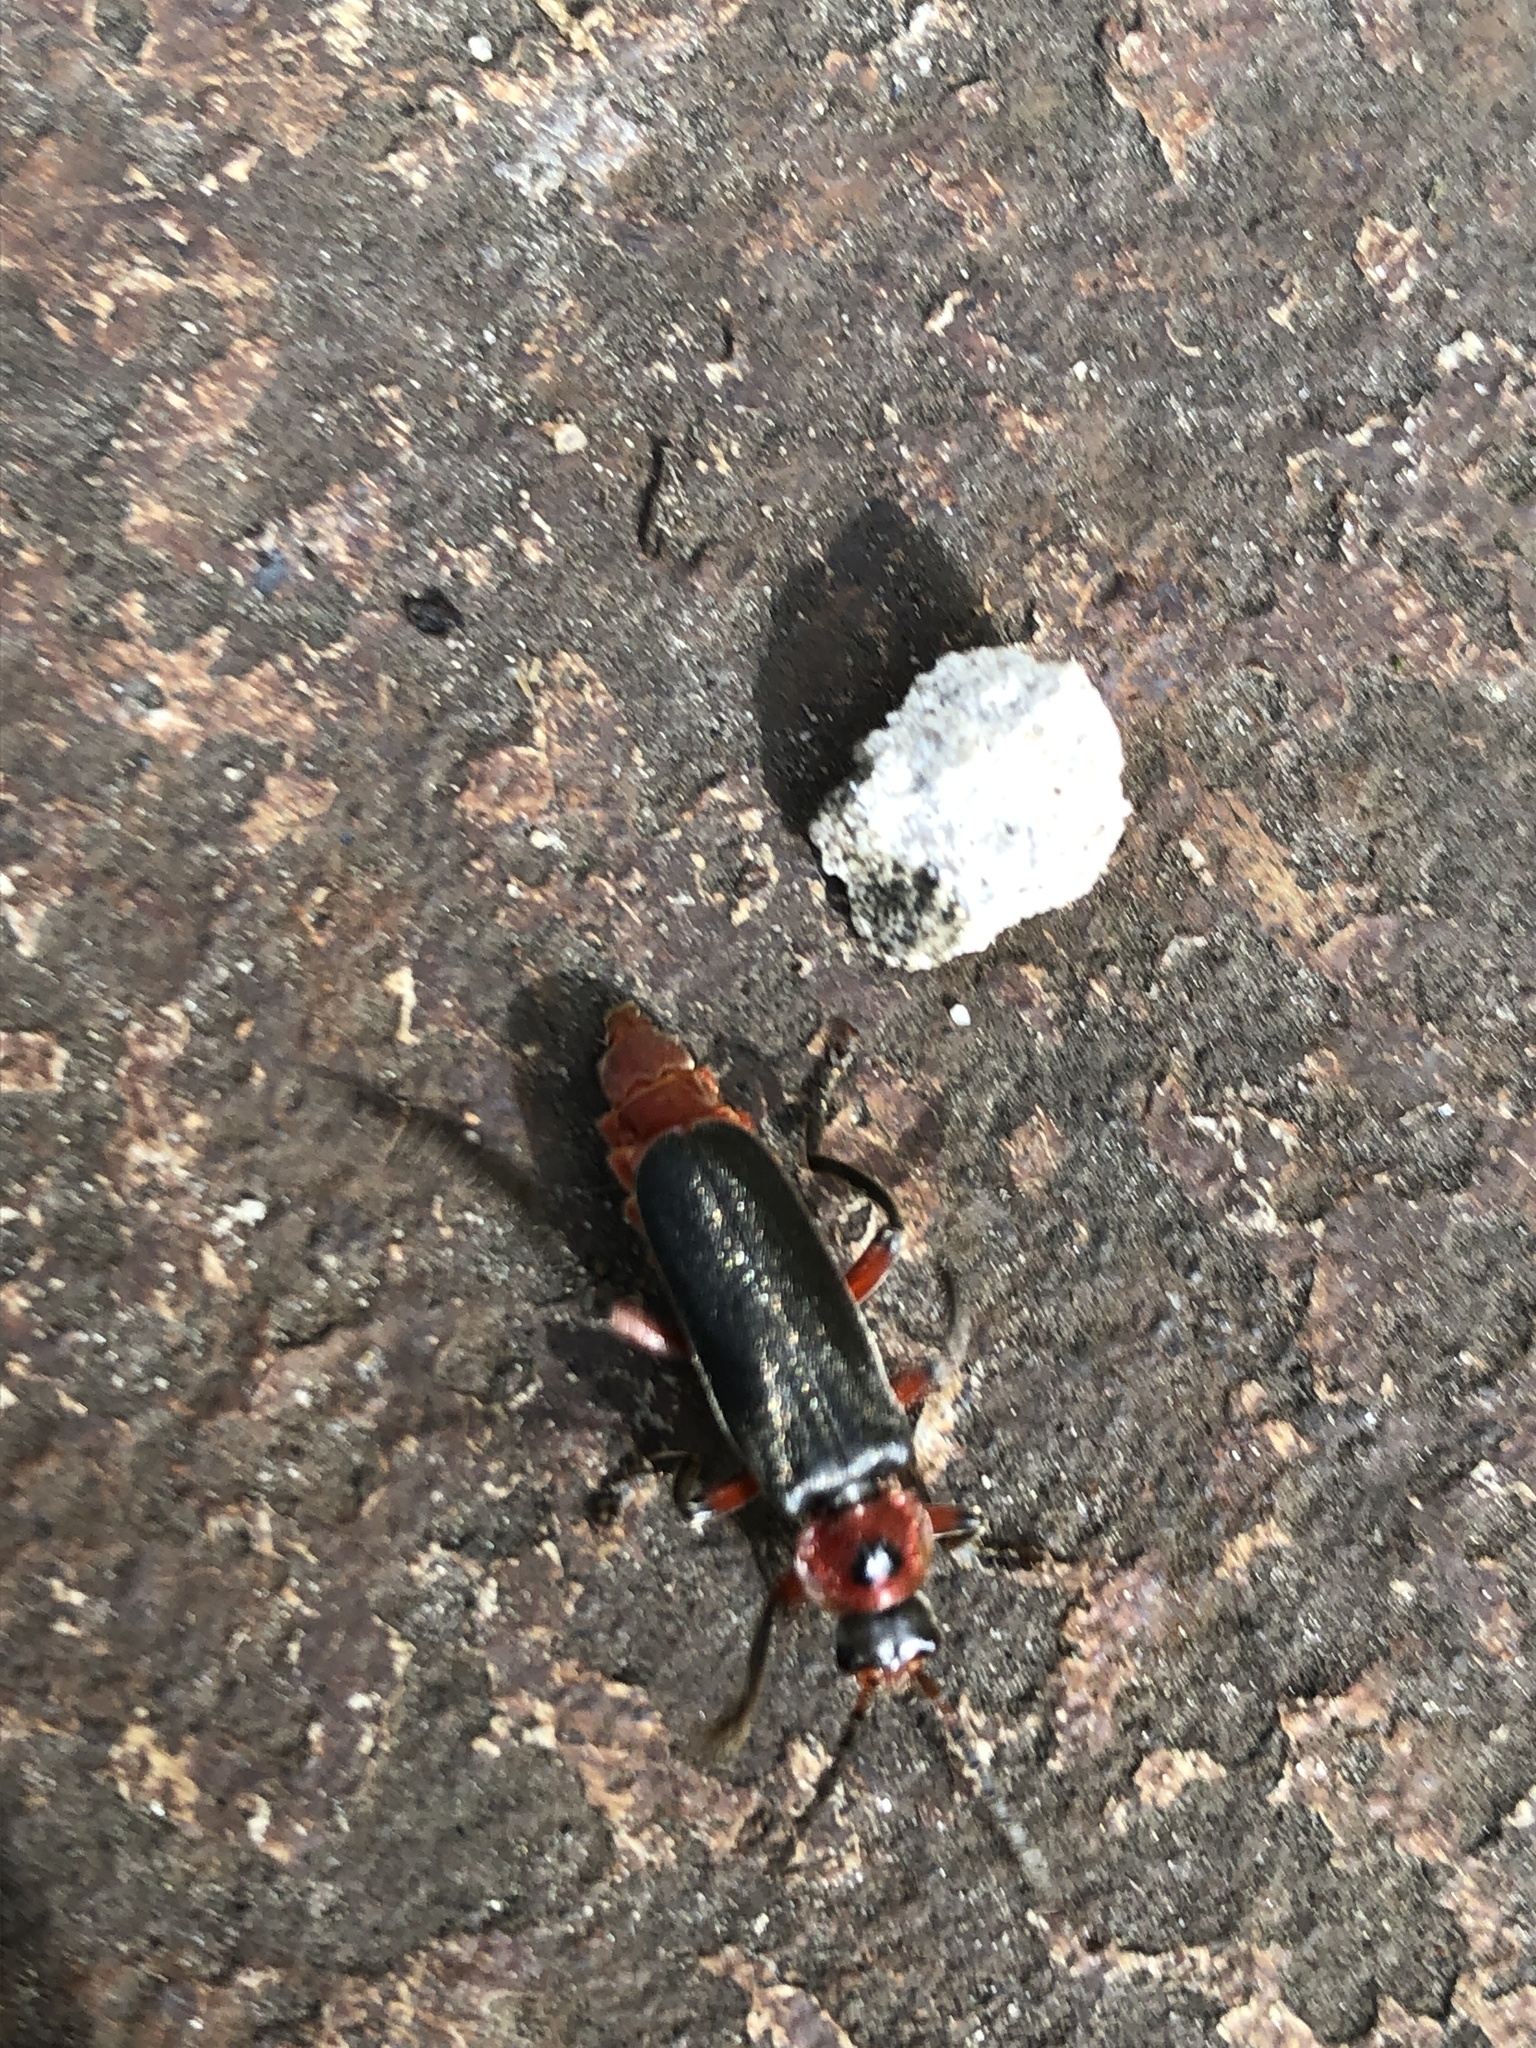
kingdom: Animalia
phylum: Arthropoda
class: Insecta
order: Coleoptera
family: Cantharidae
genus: Cantharis
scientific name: Cantharis rustica
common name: Soldier beetle
